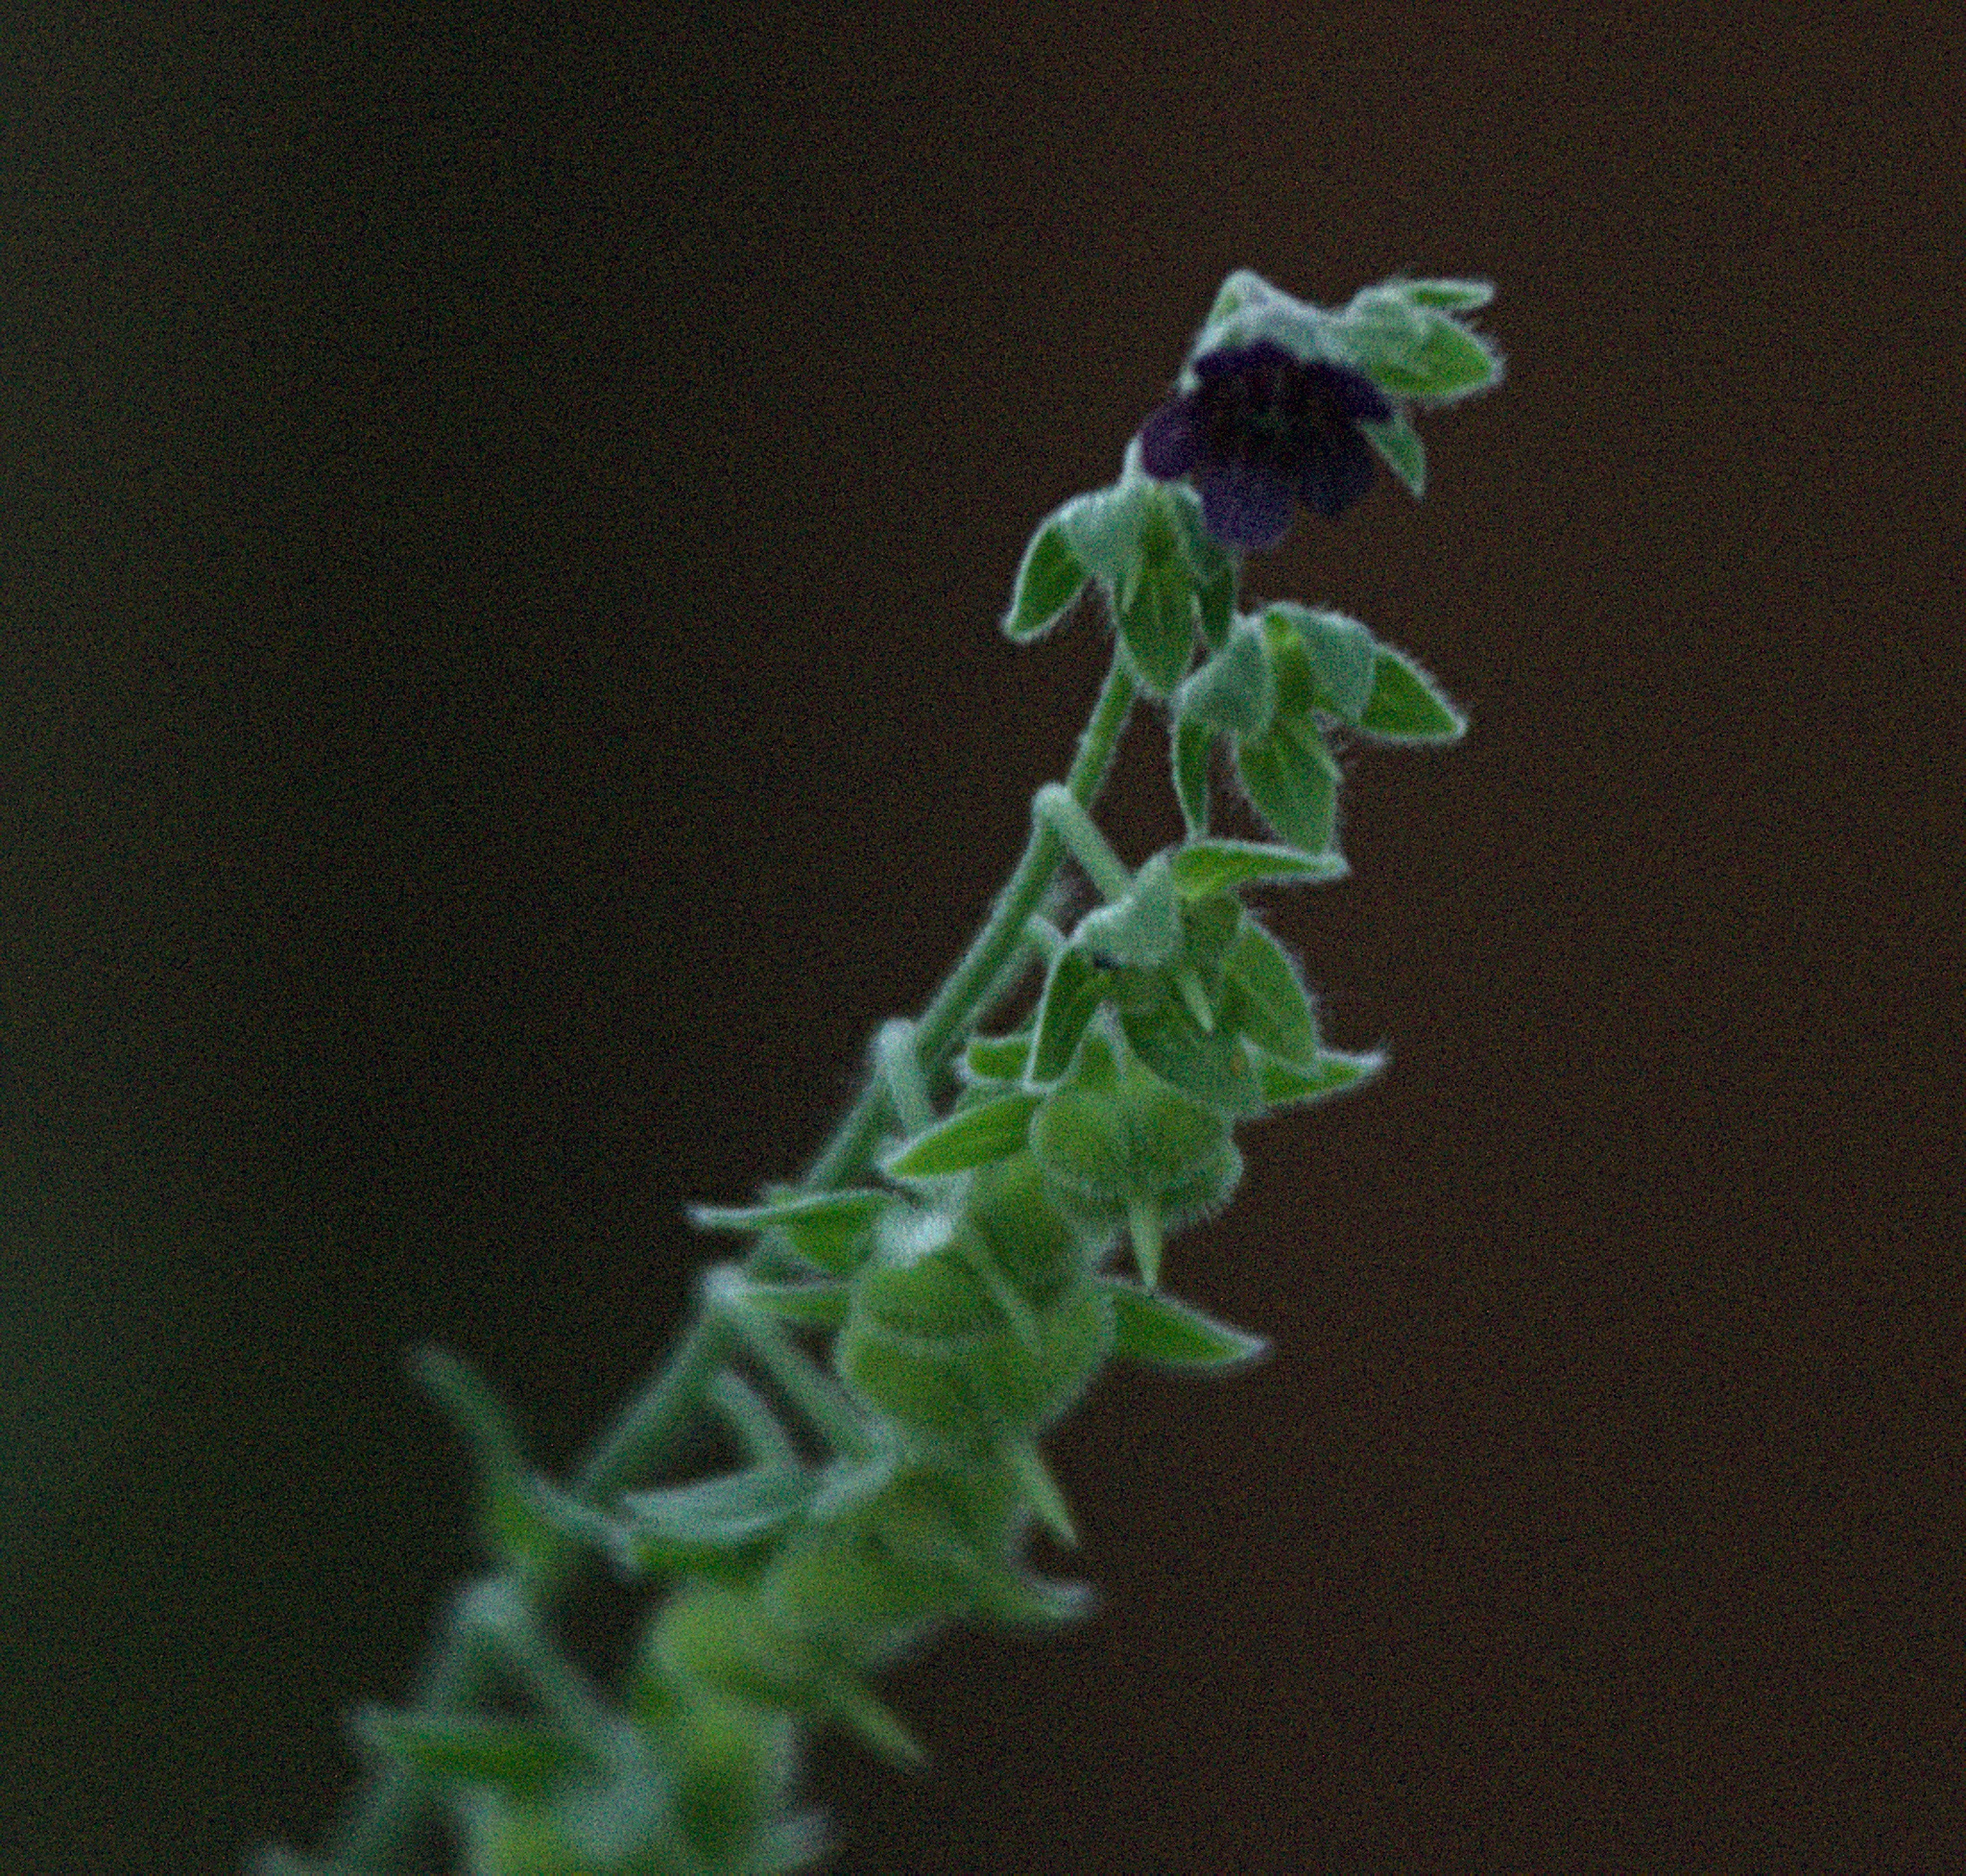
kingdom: Plantae
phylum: Tracheophyta
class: Magnoliopsida
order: Boraginales
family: Boraginaceae
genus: Cynoglossum
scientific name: Cynoglossum officinale
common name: Hound's-tongue
